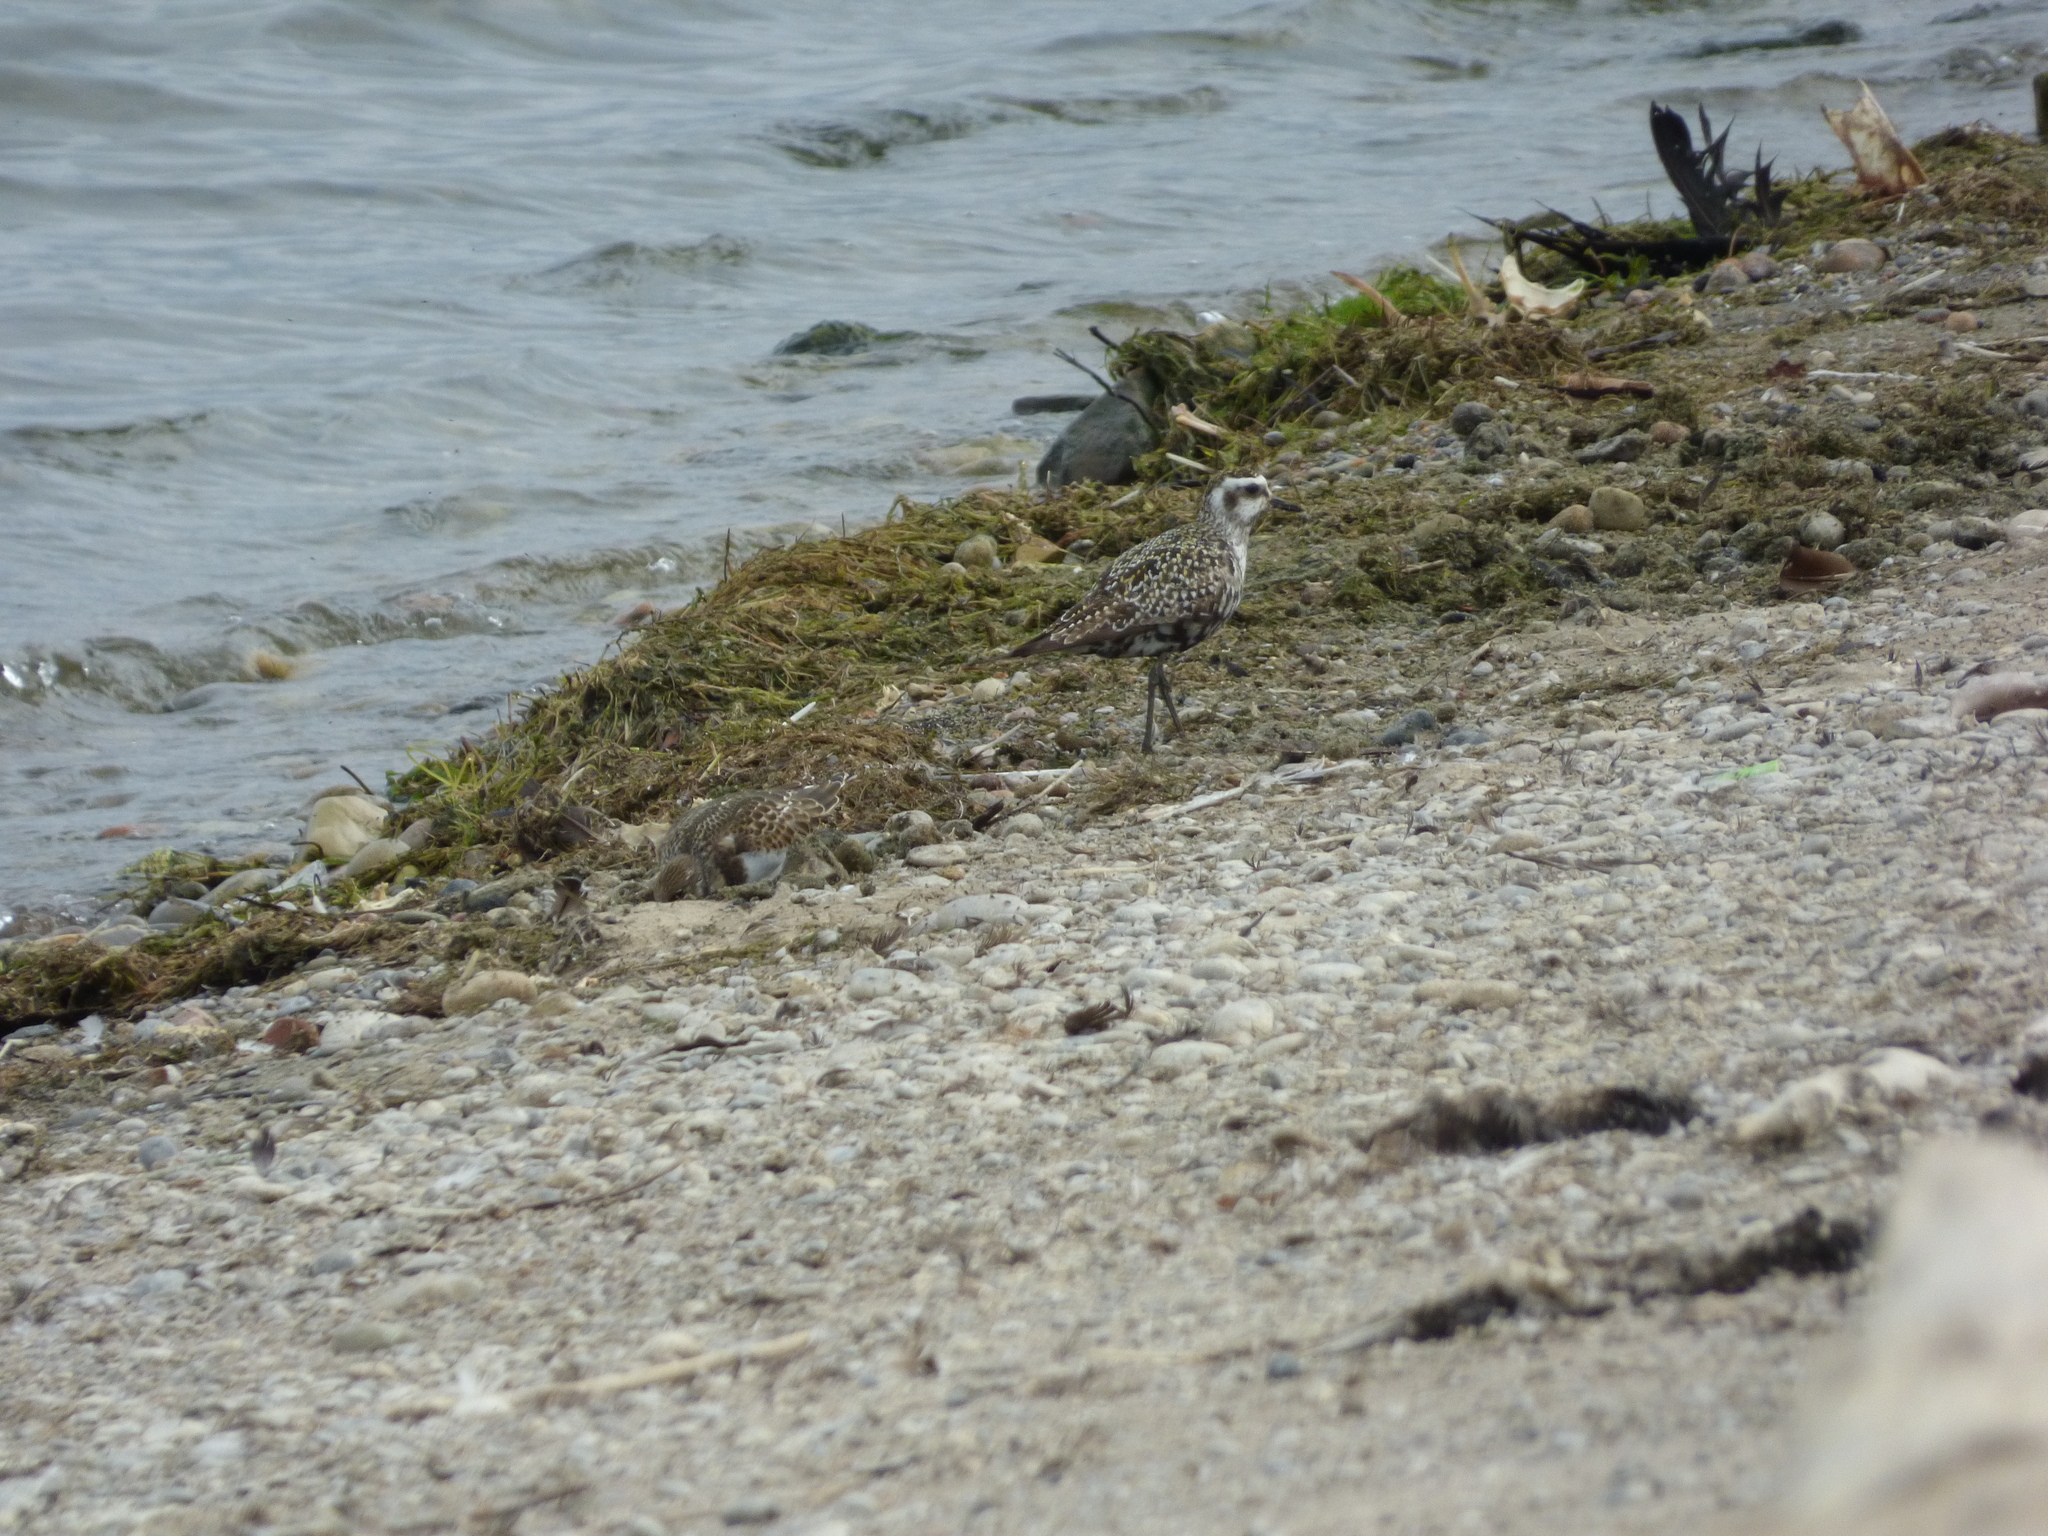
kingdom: Animalia
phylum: Chordata
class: Aves
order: Charadriiformes
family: Charadriidae
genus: Pluvialis
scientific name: Pluvialis dominica
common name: American golden plover
